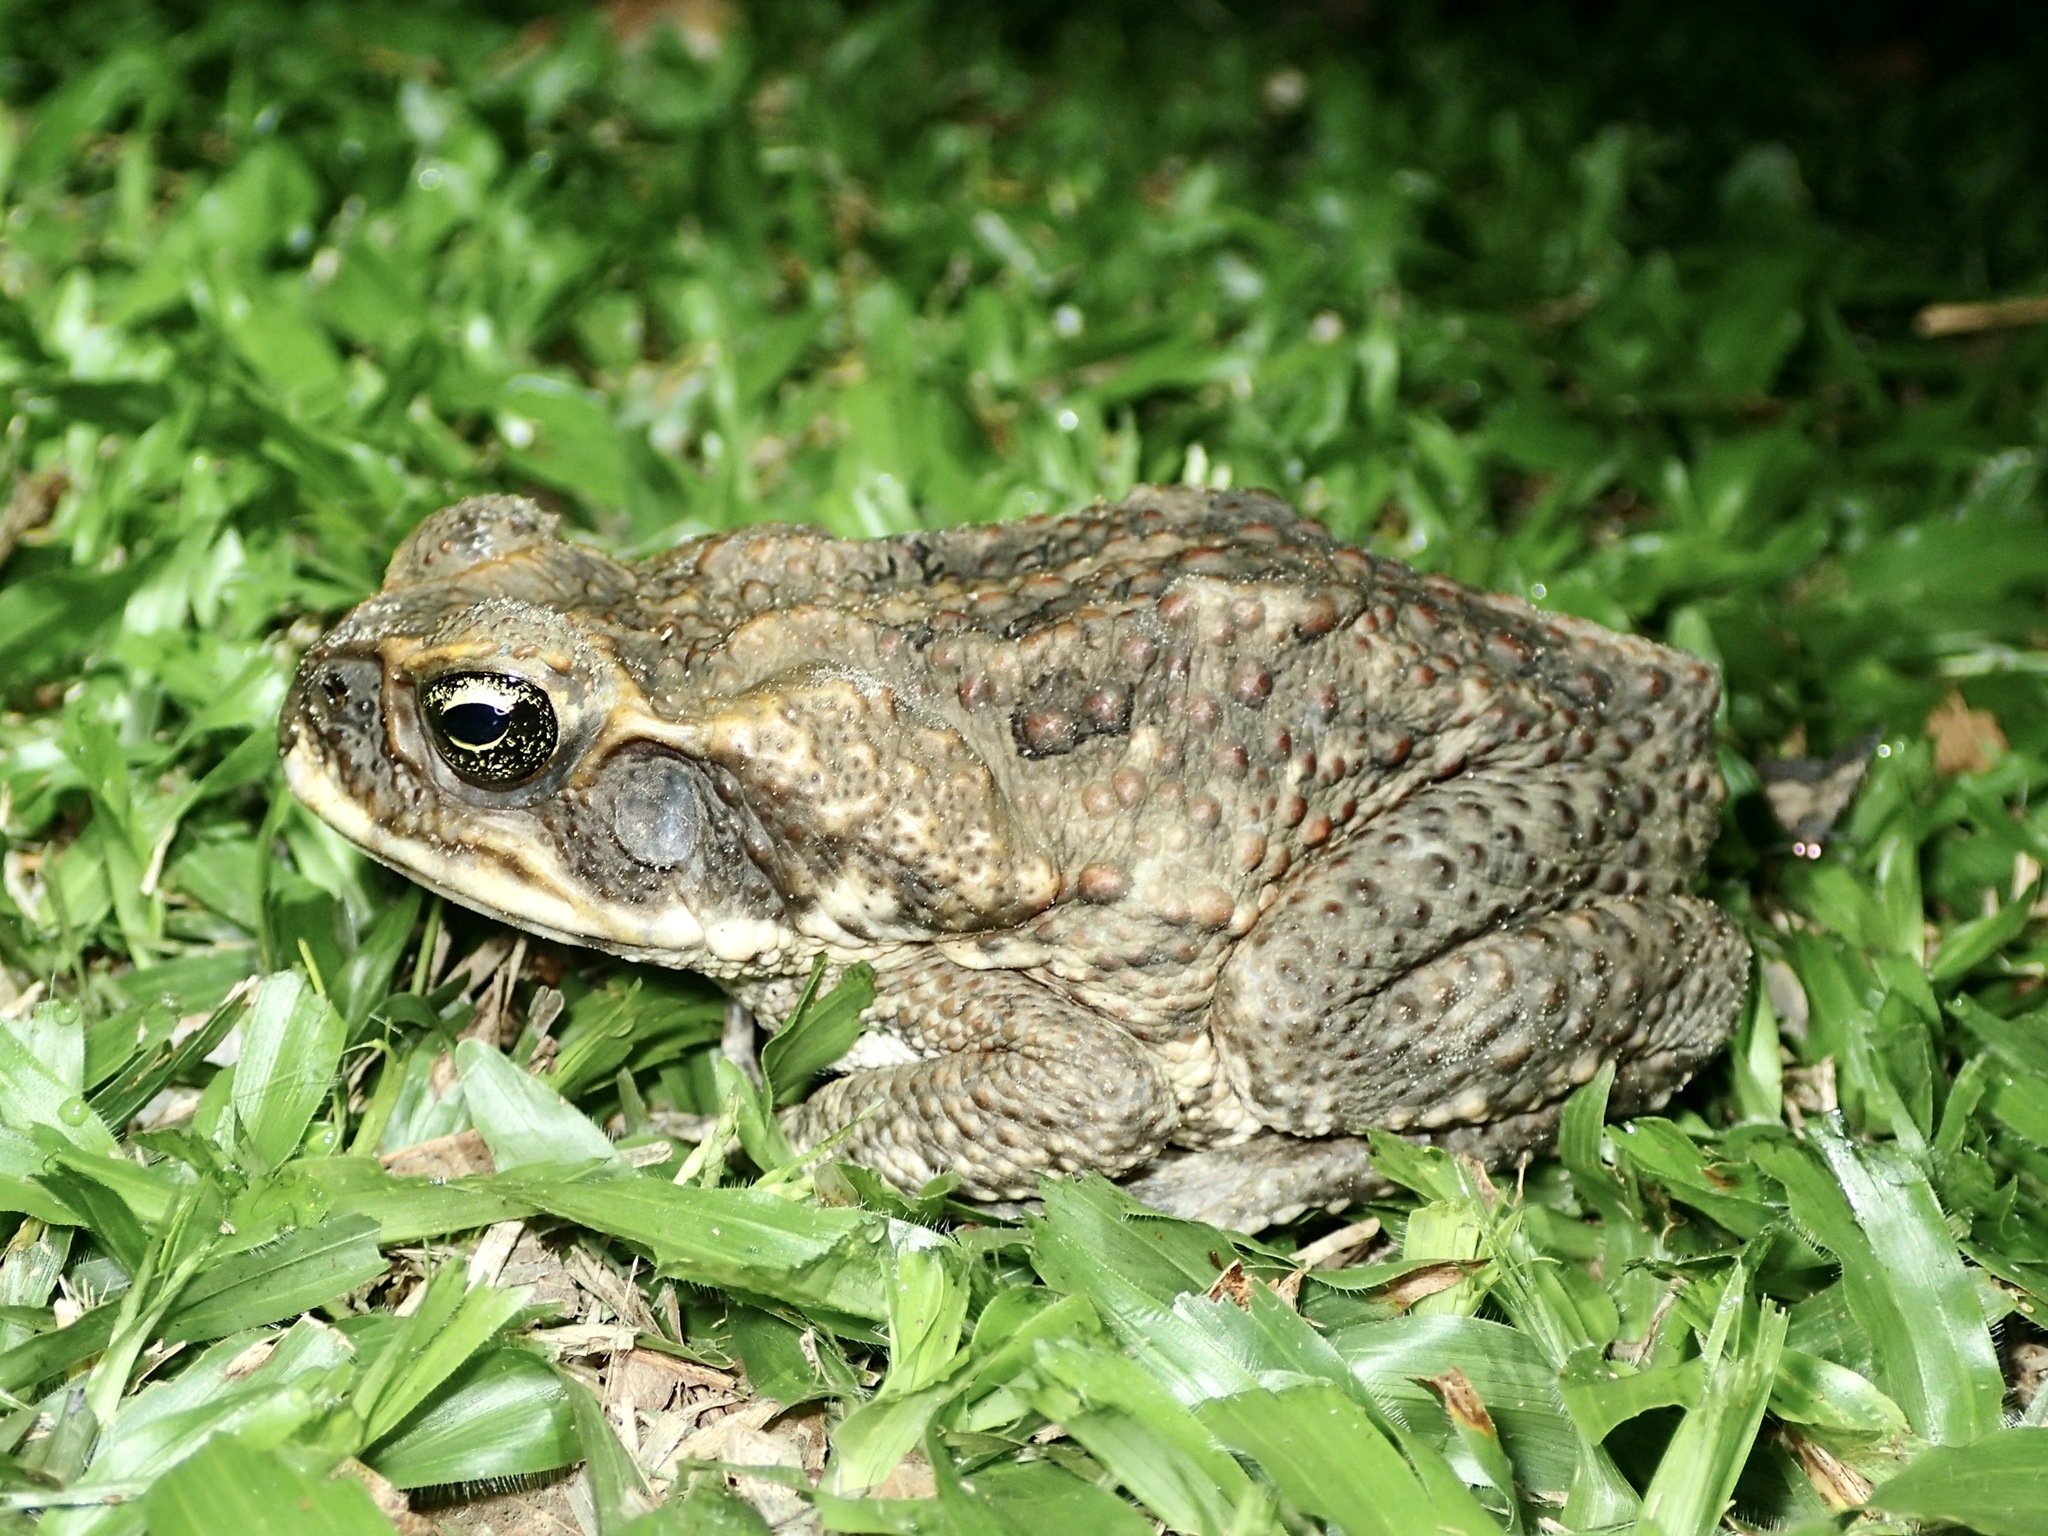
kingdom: Animalia
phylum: Chordata
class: Amphibia
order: Anura
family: Bufonidae
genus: Rhinella
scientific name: Rhinella marina
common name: Cane toad
